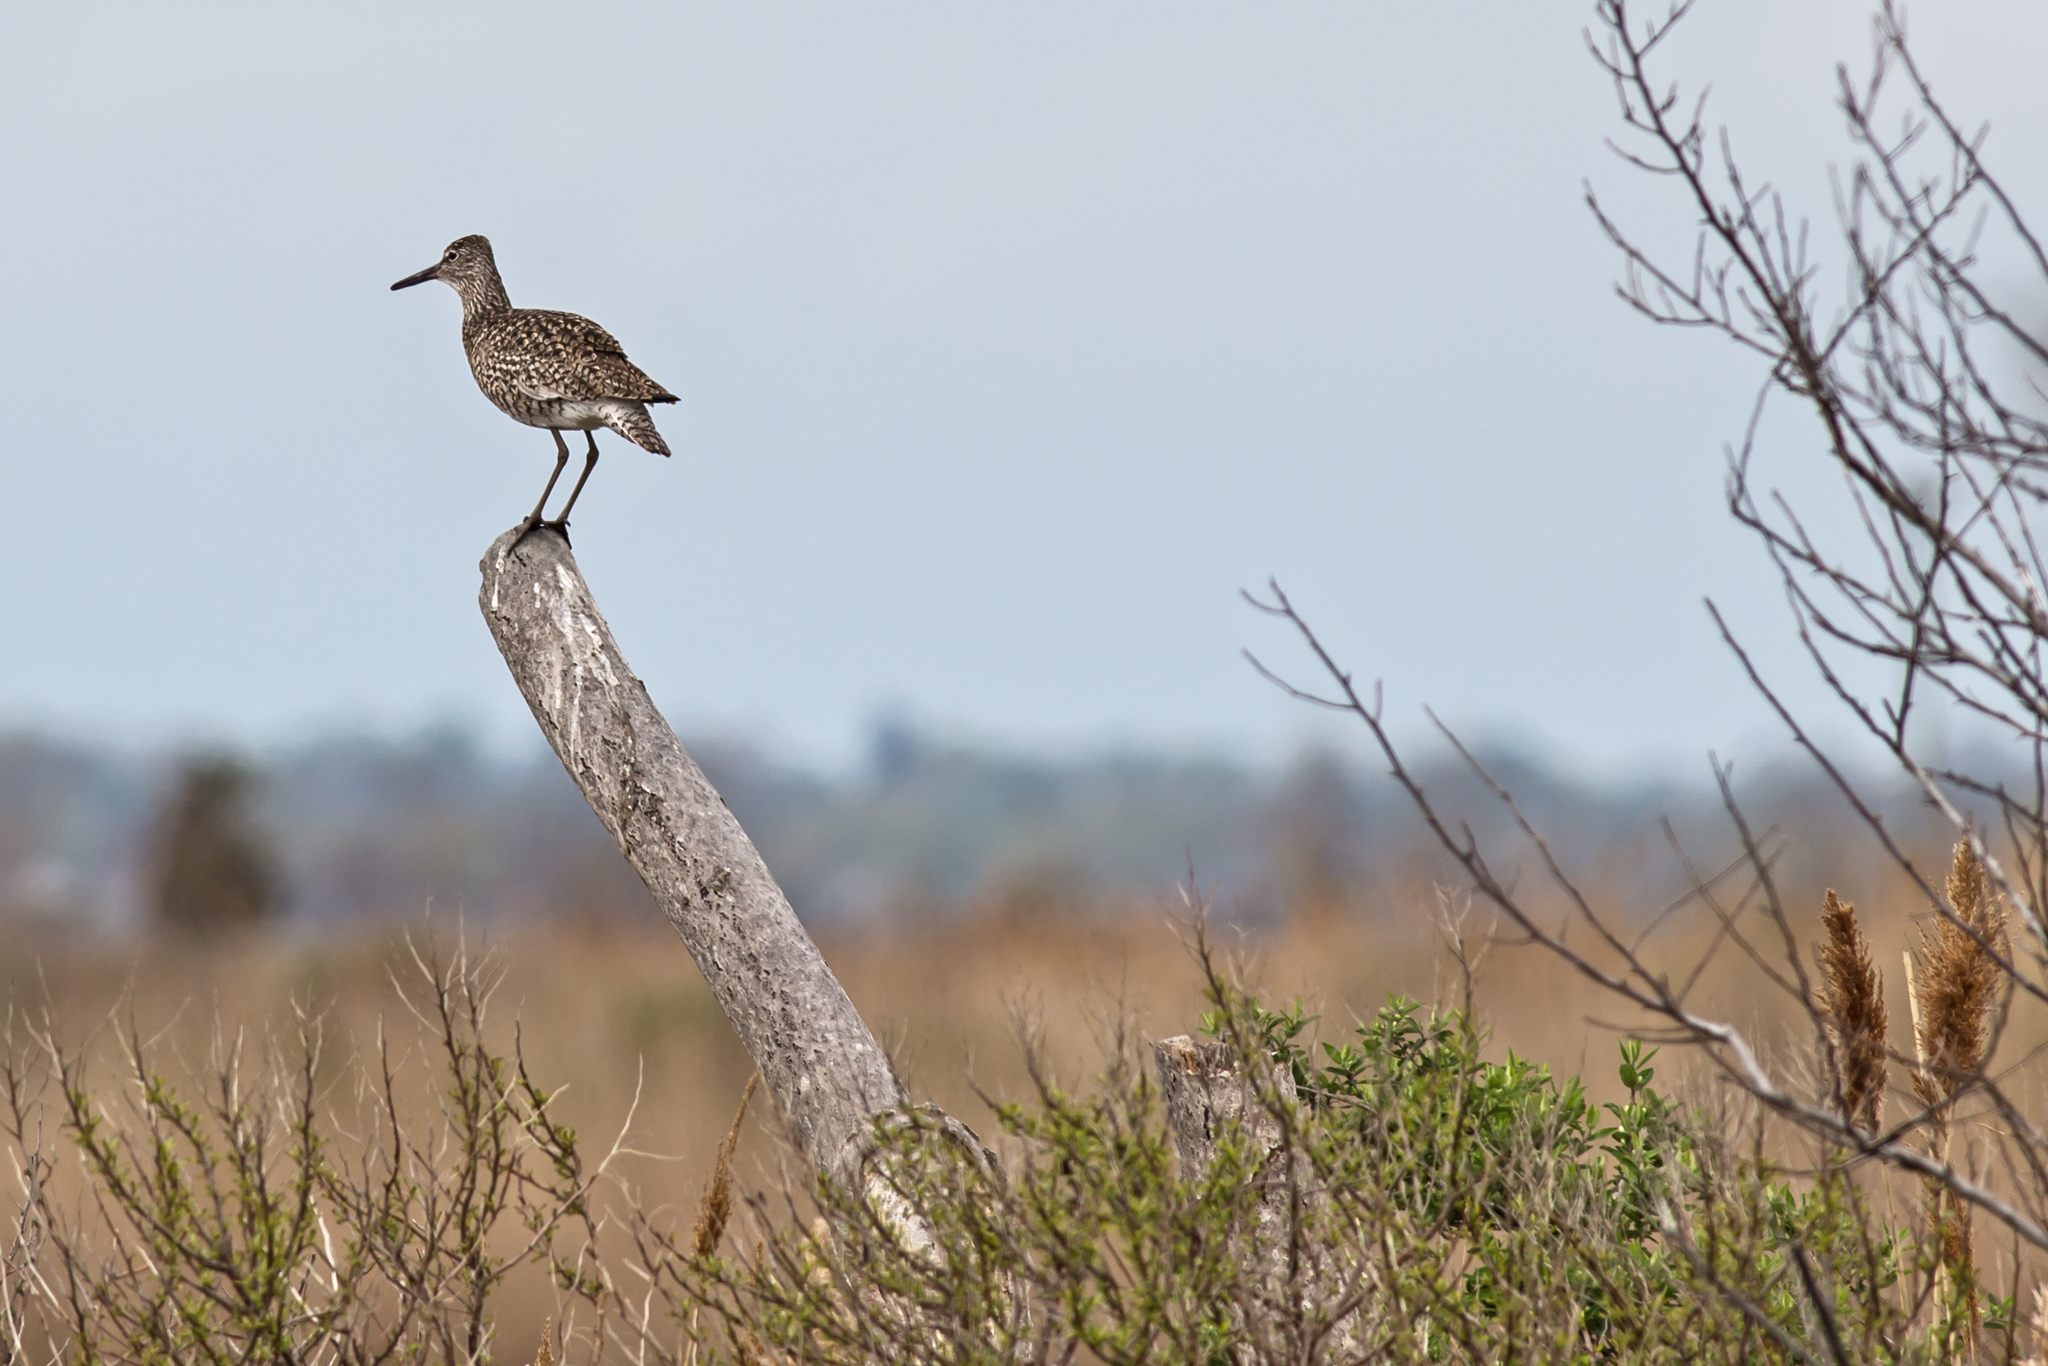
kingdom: Animalia
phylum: Chordata
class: Aves
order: Charadriiformes
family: Scolopacidae
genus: Tringa
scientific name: Tringa semipalmata
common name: Willet
